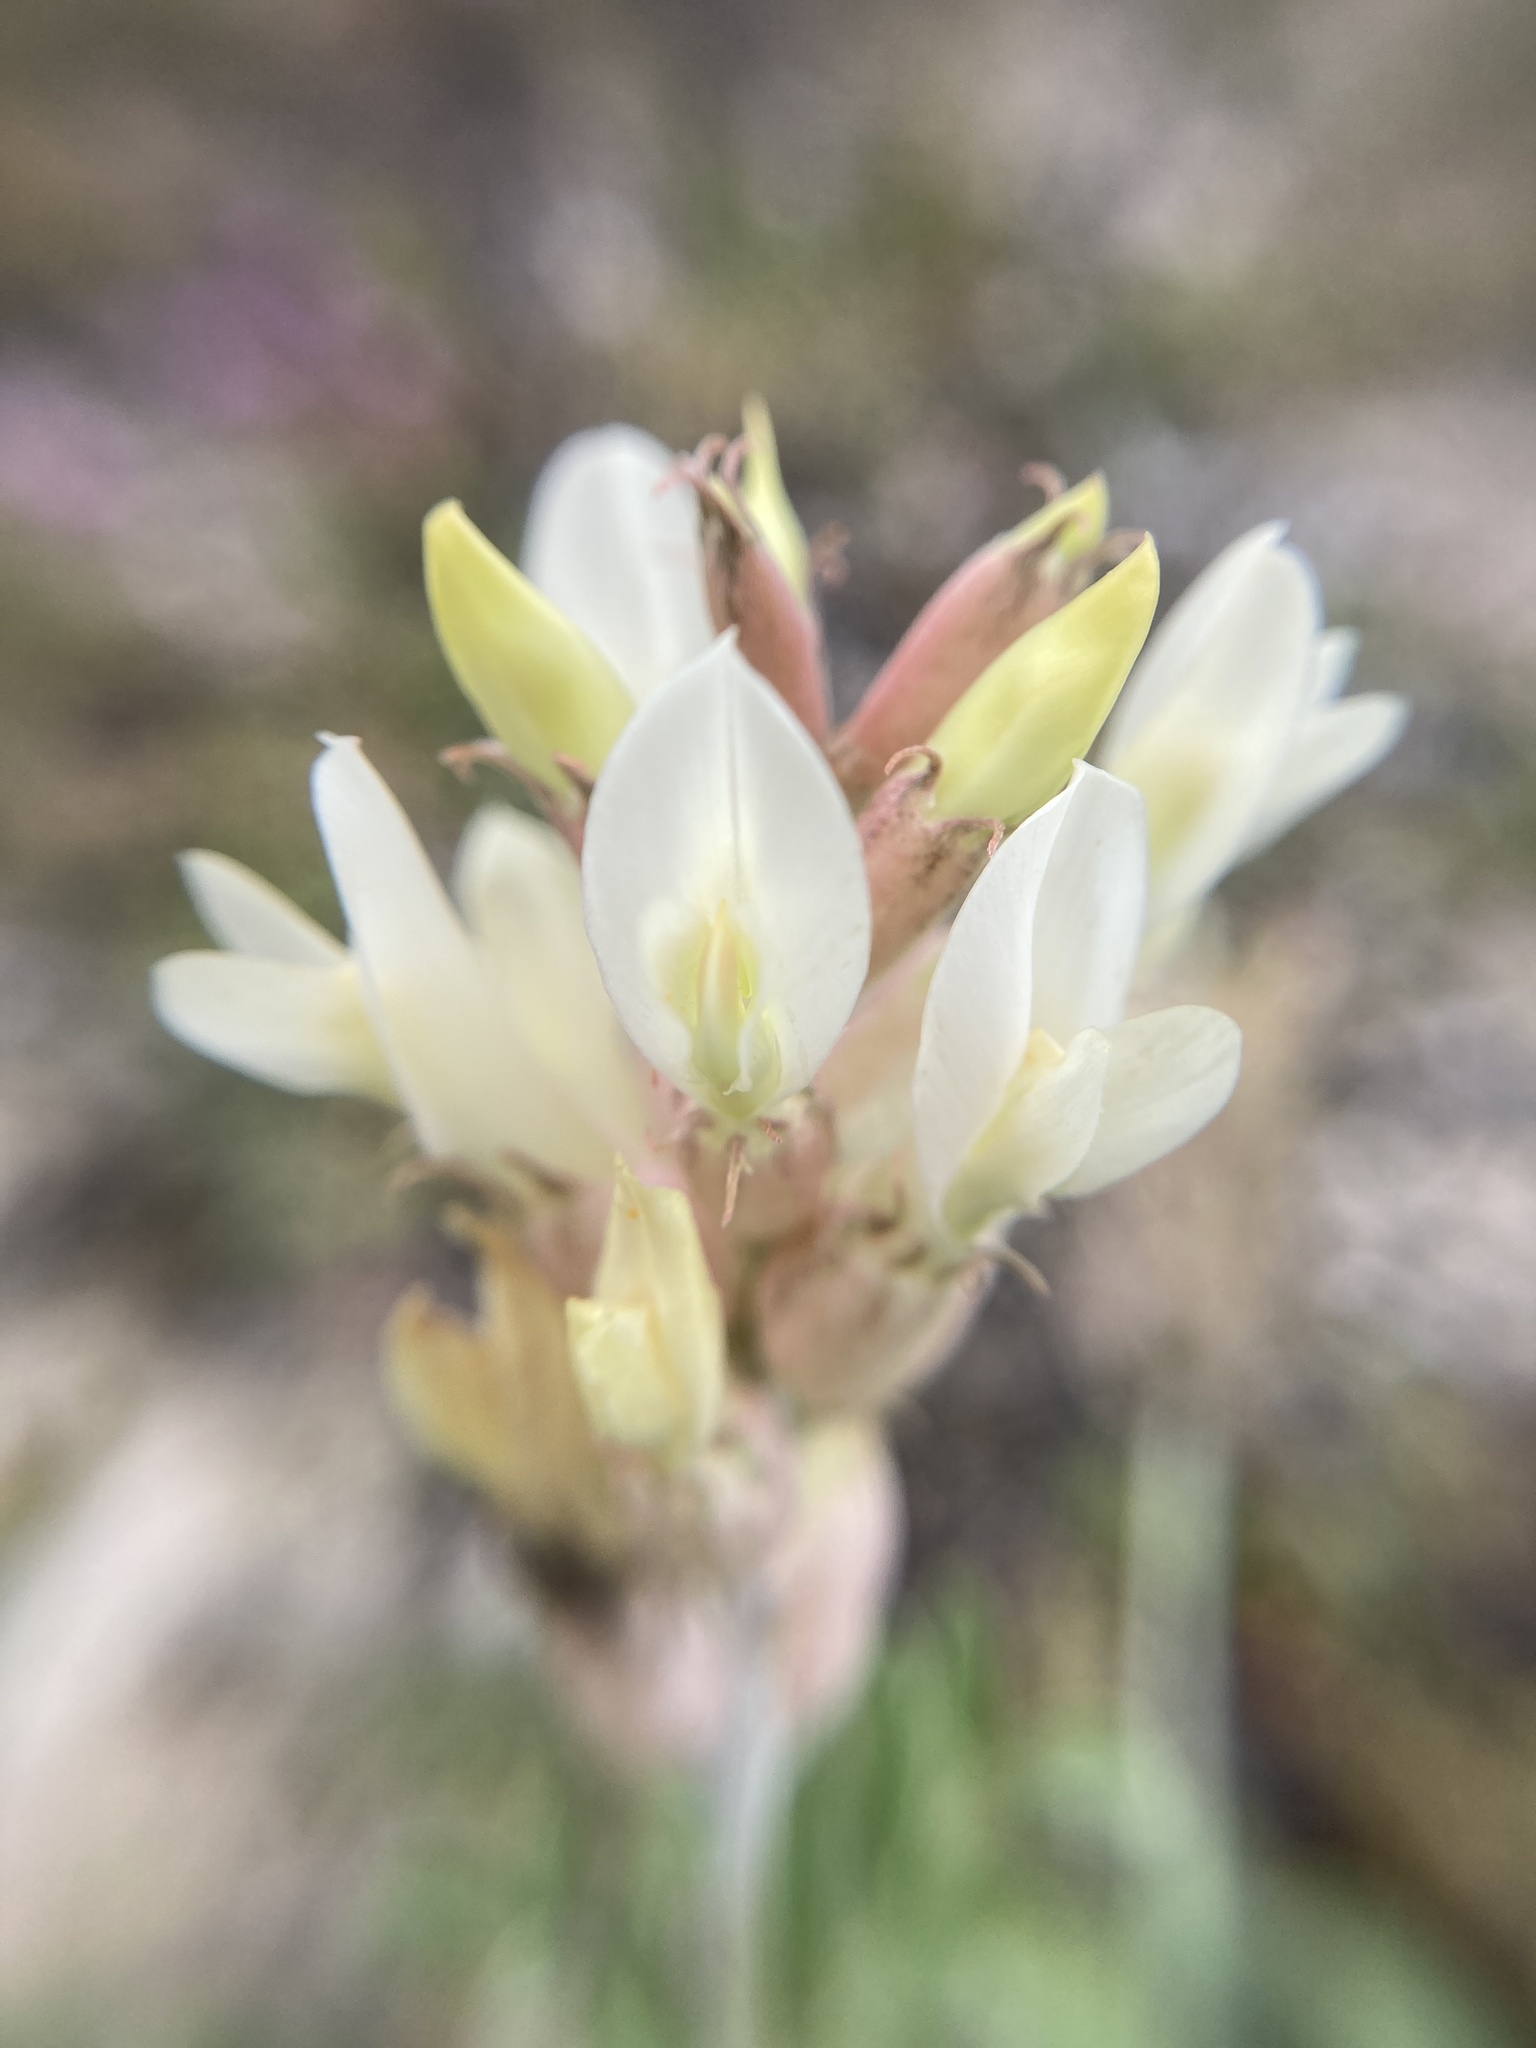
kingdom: Plantae
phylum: Tracheophyta
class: Magnoliopsida
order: Fabales
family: Fabaceae
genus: Astragalus
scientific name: Astragalus albicaulis
